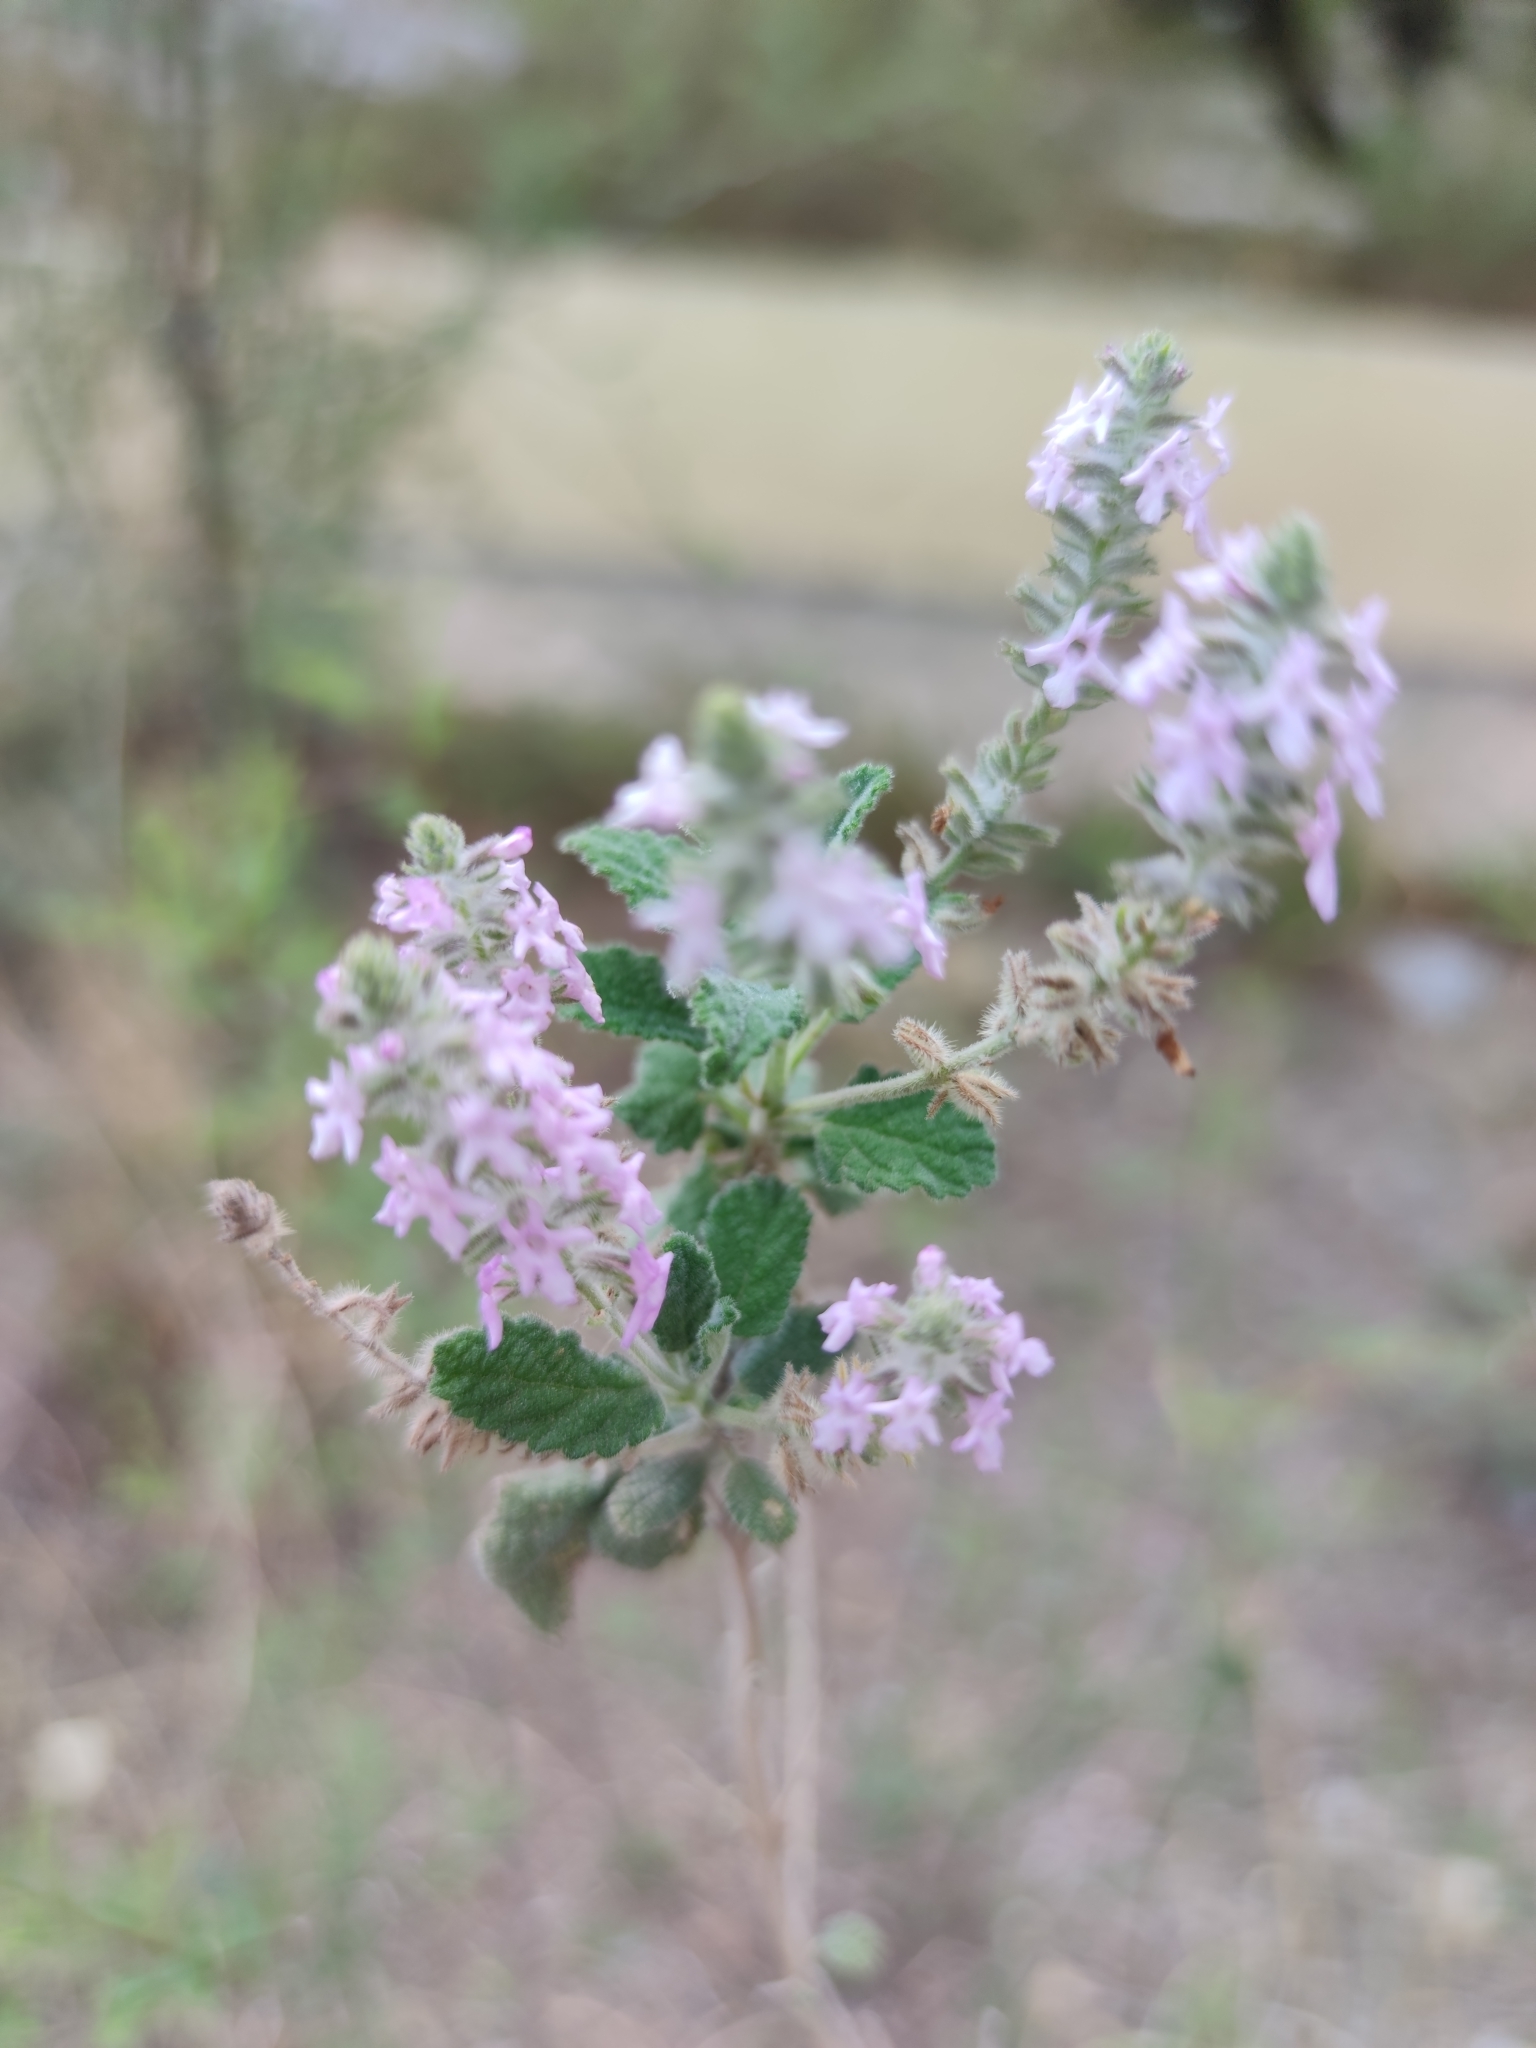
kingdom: Plantae
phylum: Tracheophyta
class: Magnoliopsida
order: Lamiales
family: Verbenaceae
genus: Aloysia
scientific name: Aloysia macrostachya
